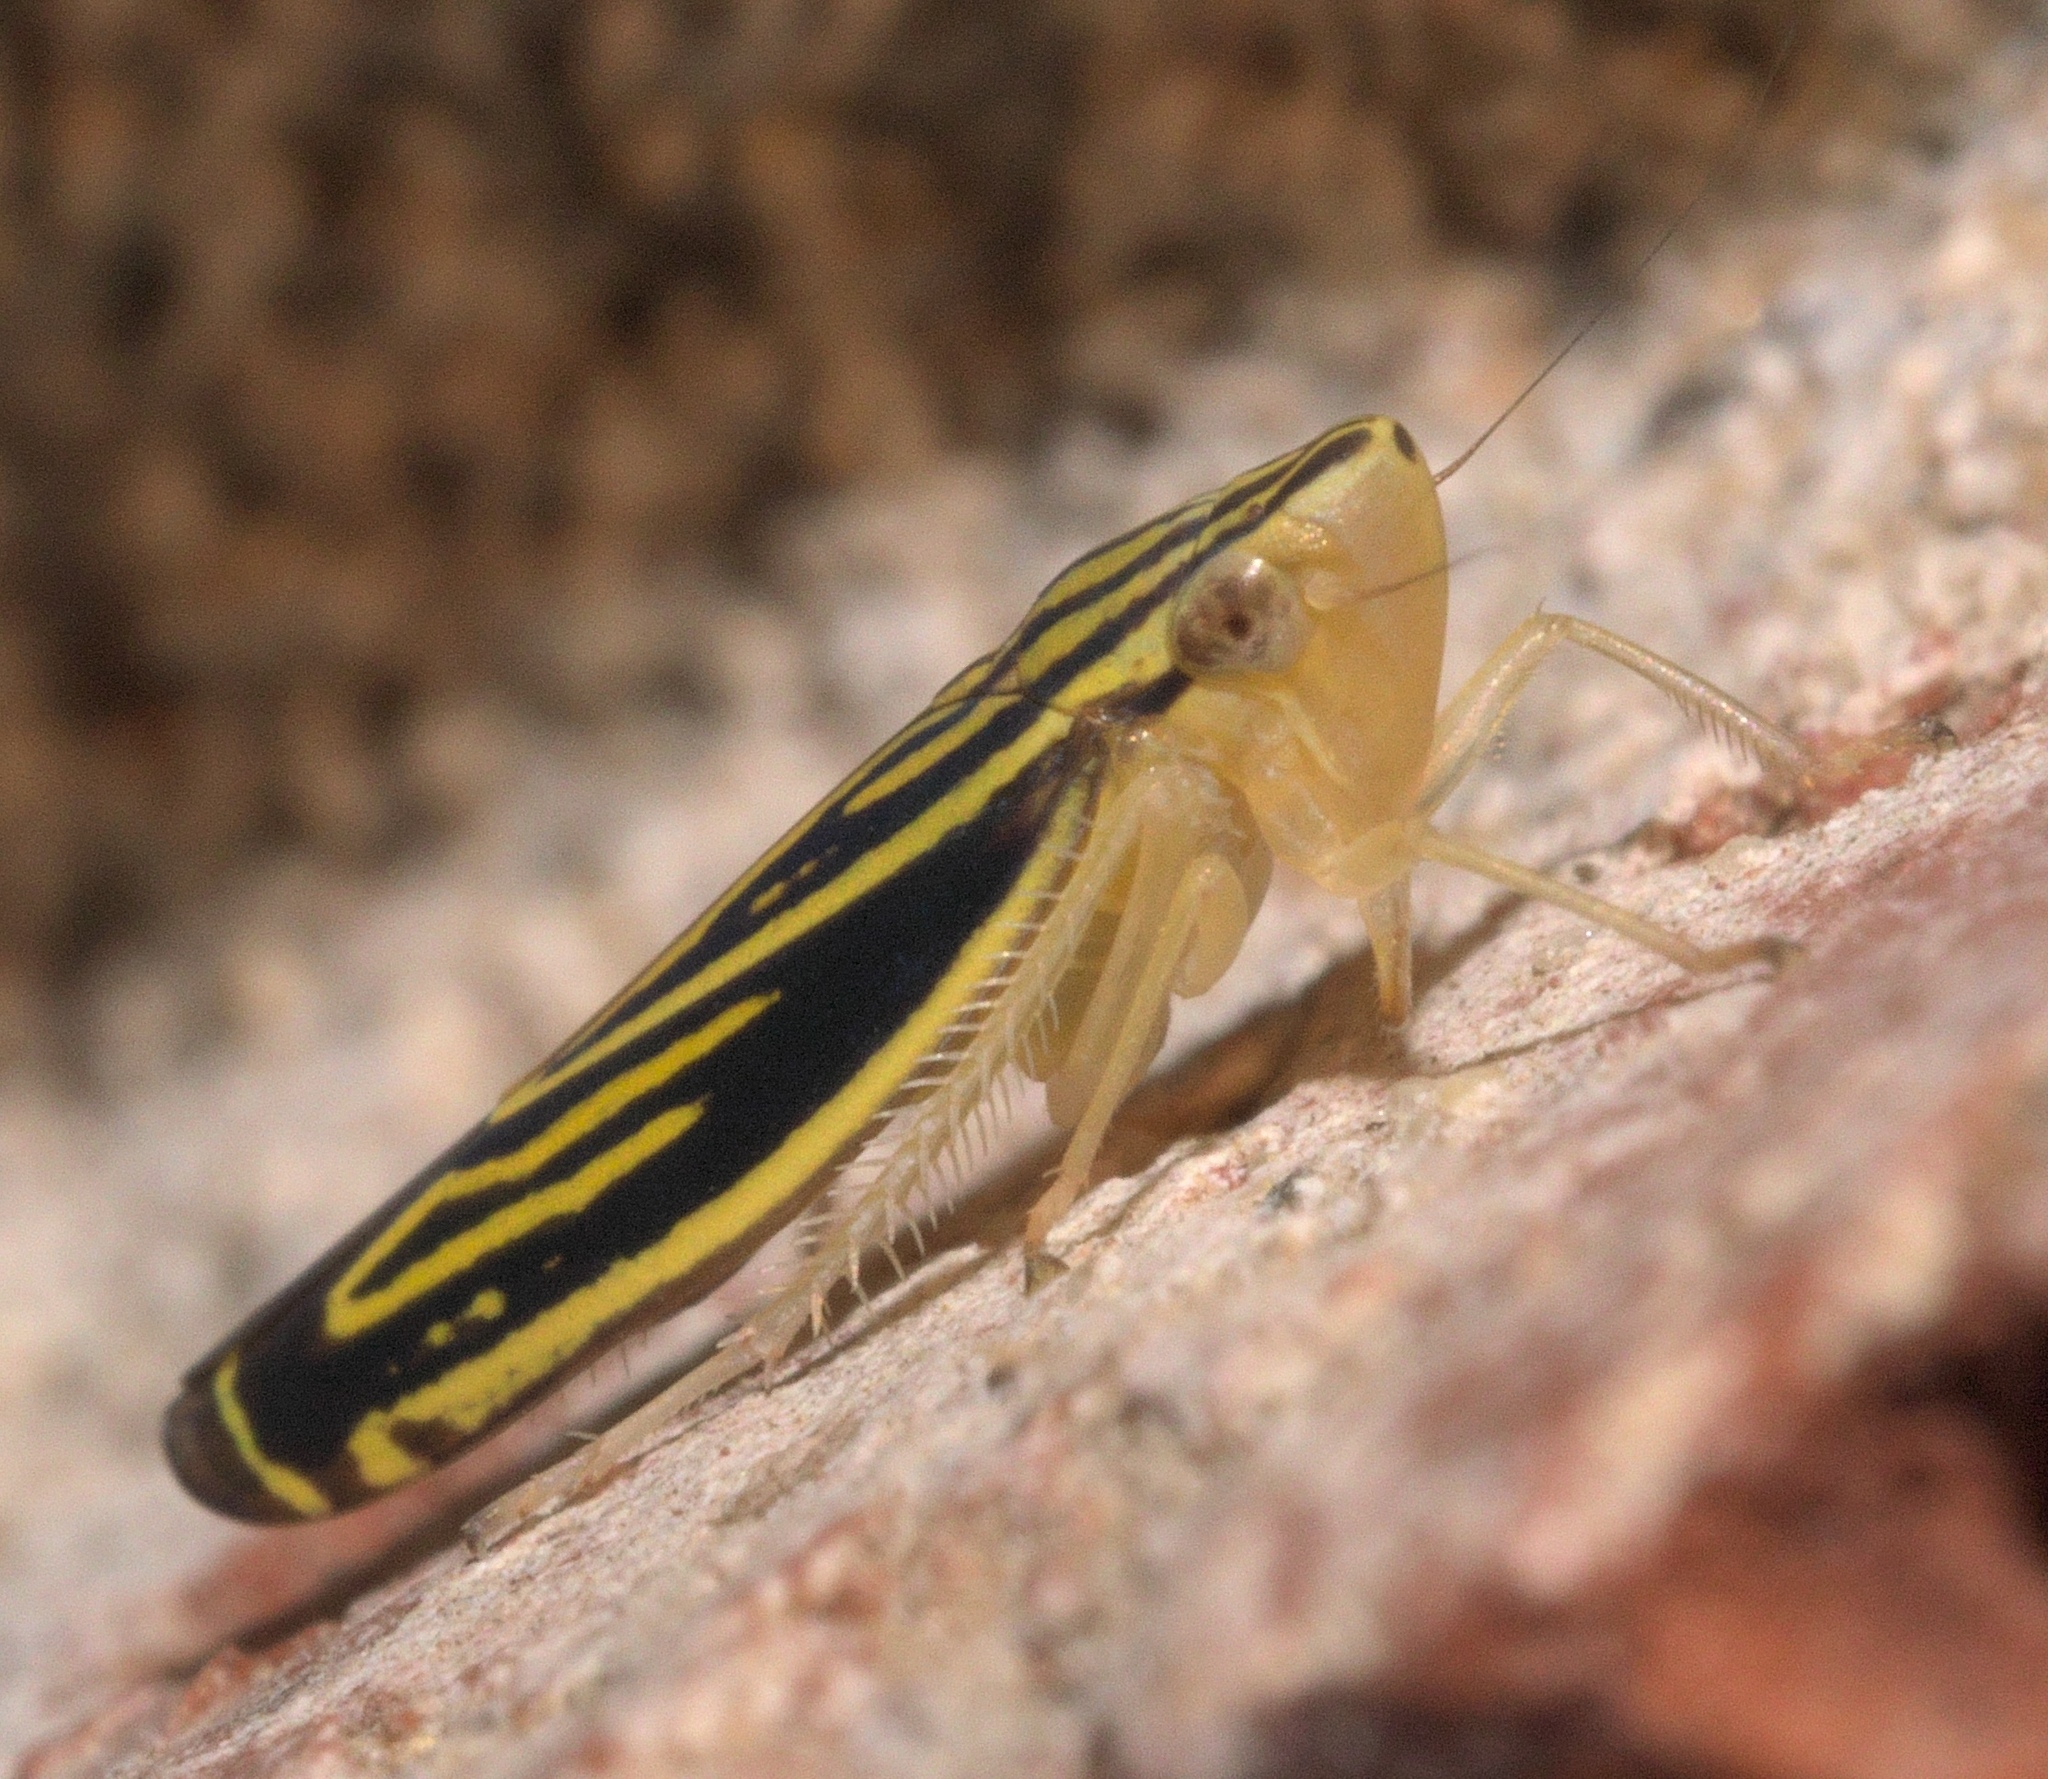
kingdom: Animalia
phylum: Arthropoda
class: Insecta
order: Hemiptera
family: Cicadellidae
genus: Sibovia
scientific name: Sibovia occatoria
